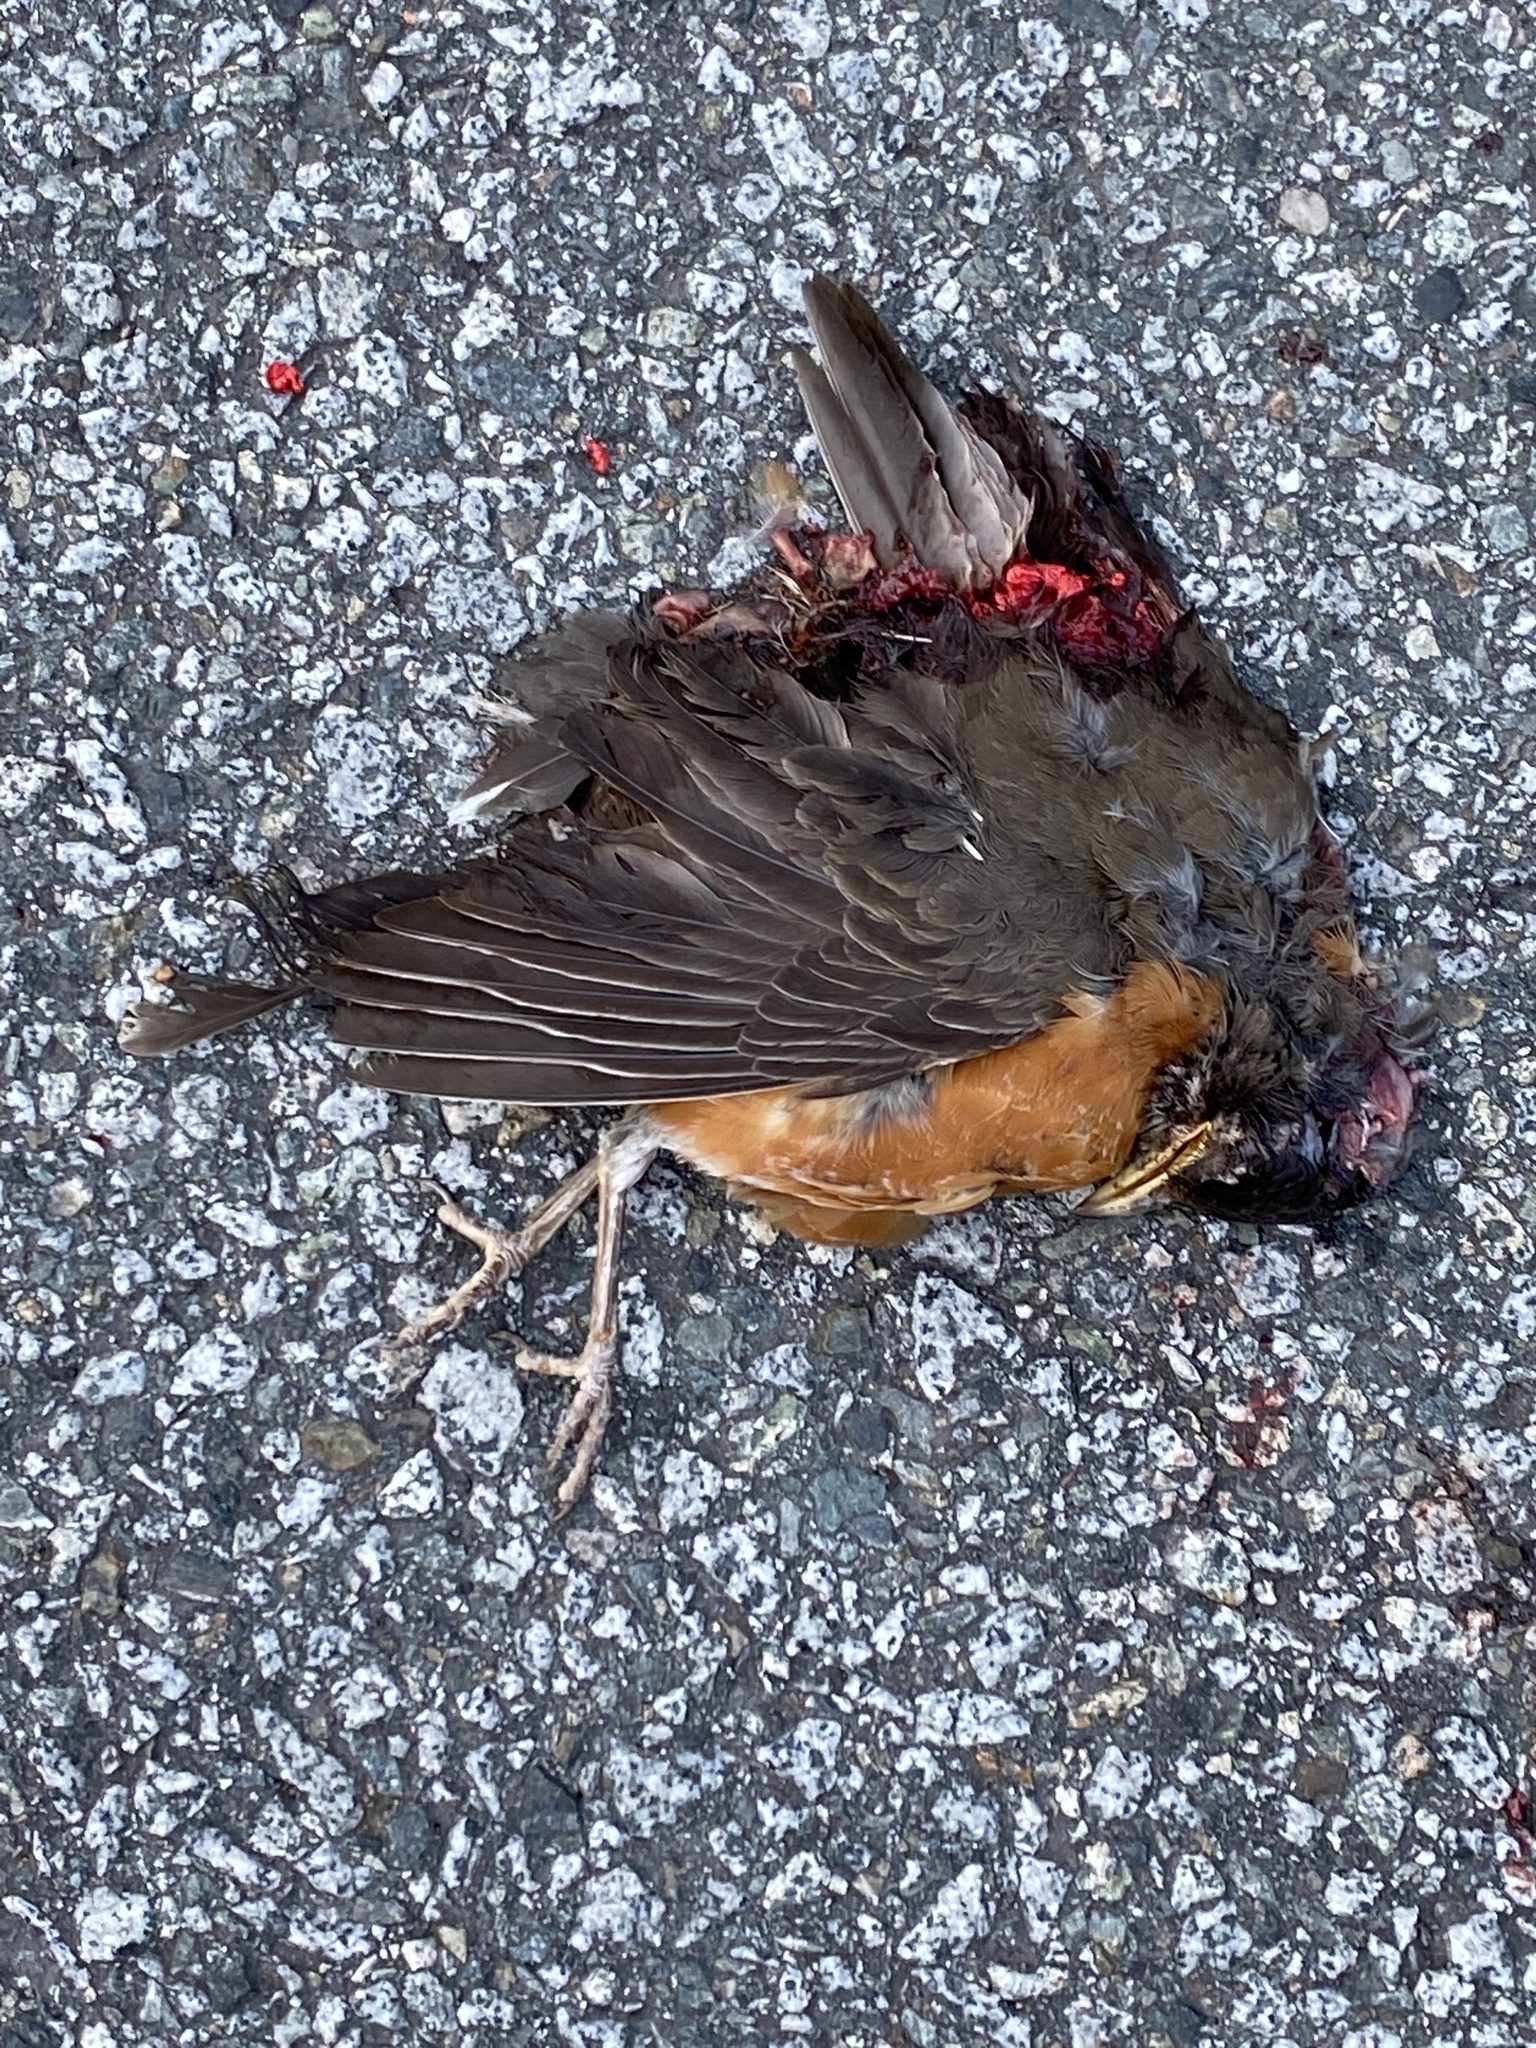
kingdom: Animalia
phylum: Chordata
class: Aves
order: Passeriformes
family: Turdidae
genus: Turdus
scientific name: Turdus migratorius
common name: American robin
